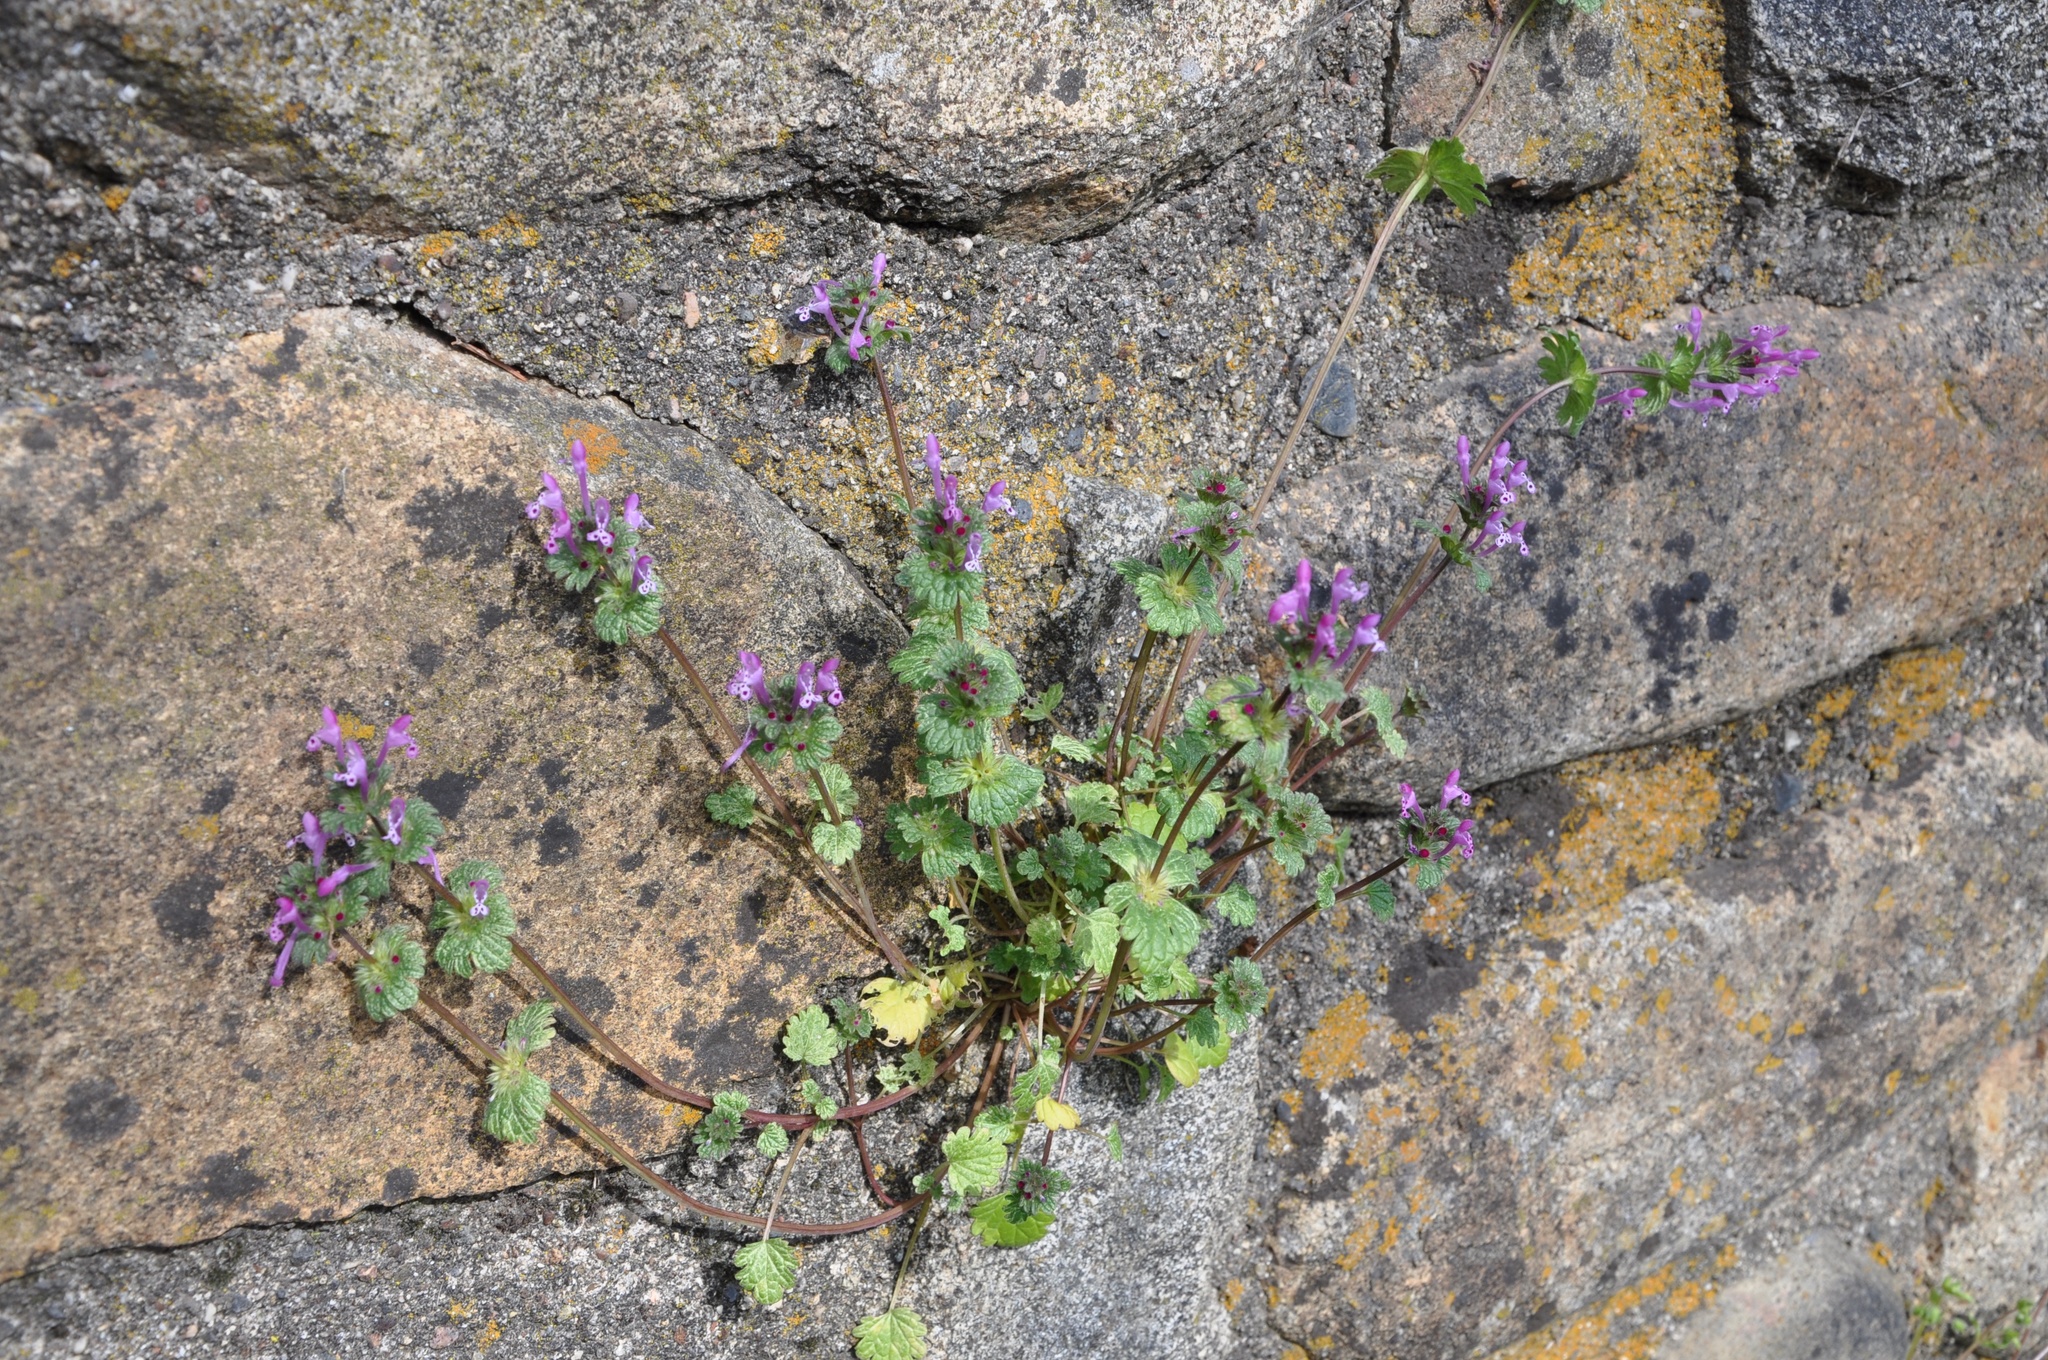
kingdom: Plantae
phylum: Tracheophyta
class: Magnoliopsida
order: Lamiales
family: Lamiaceae
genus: Lamium
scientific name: Lamium amplexicaule
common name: Henbit dead-nettle
